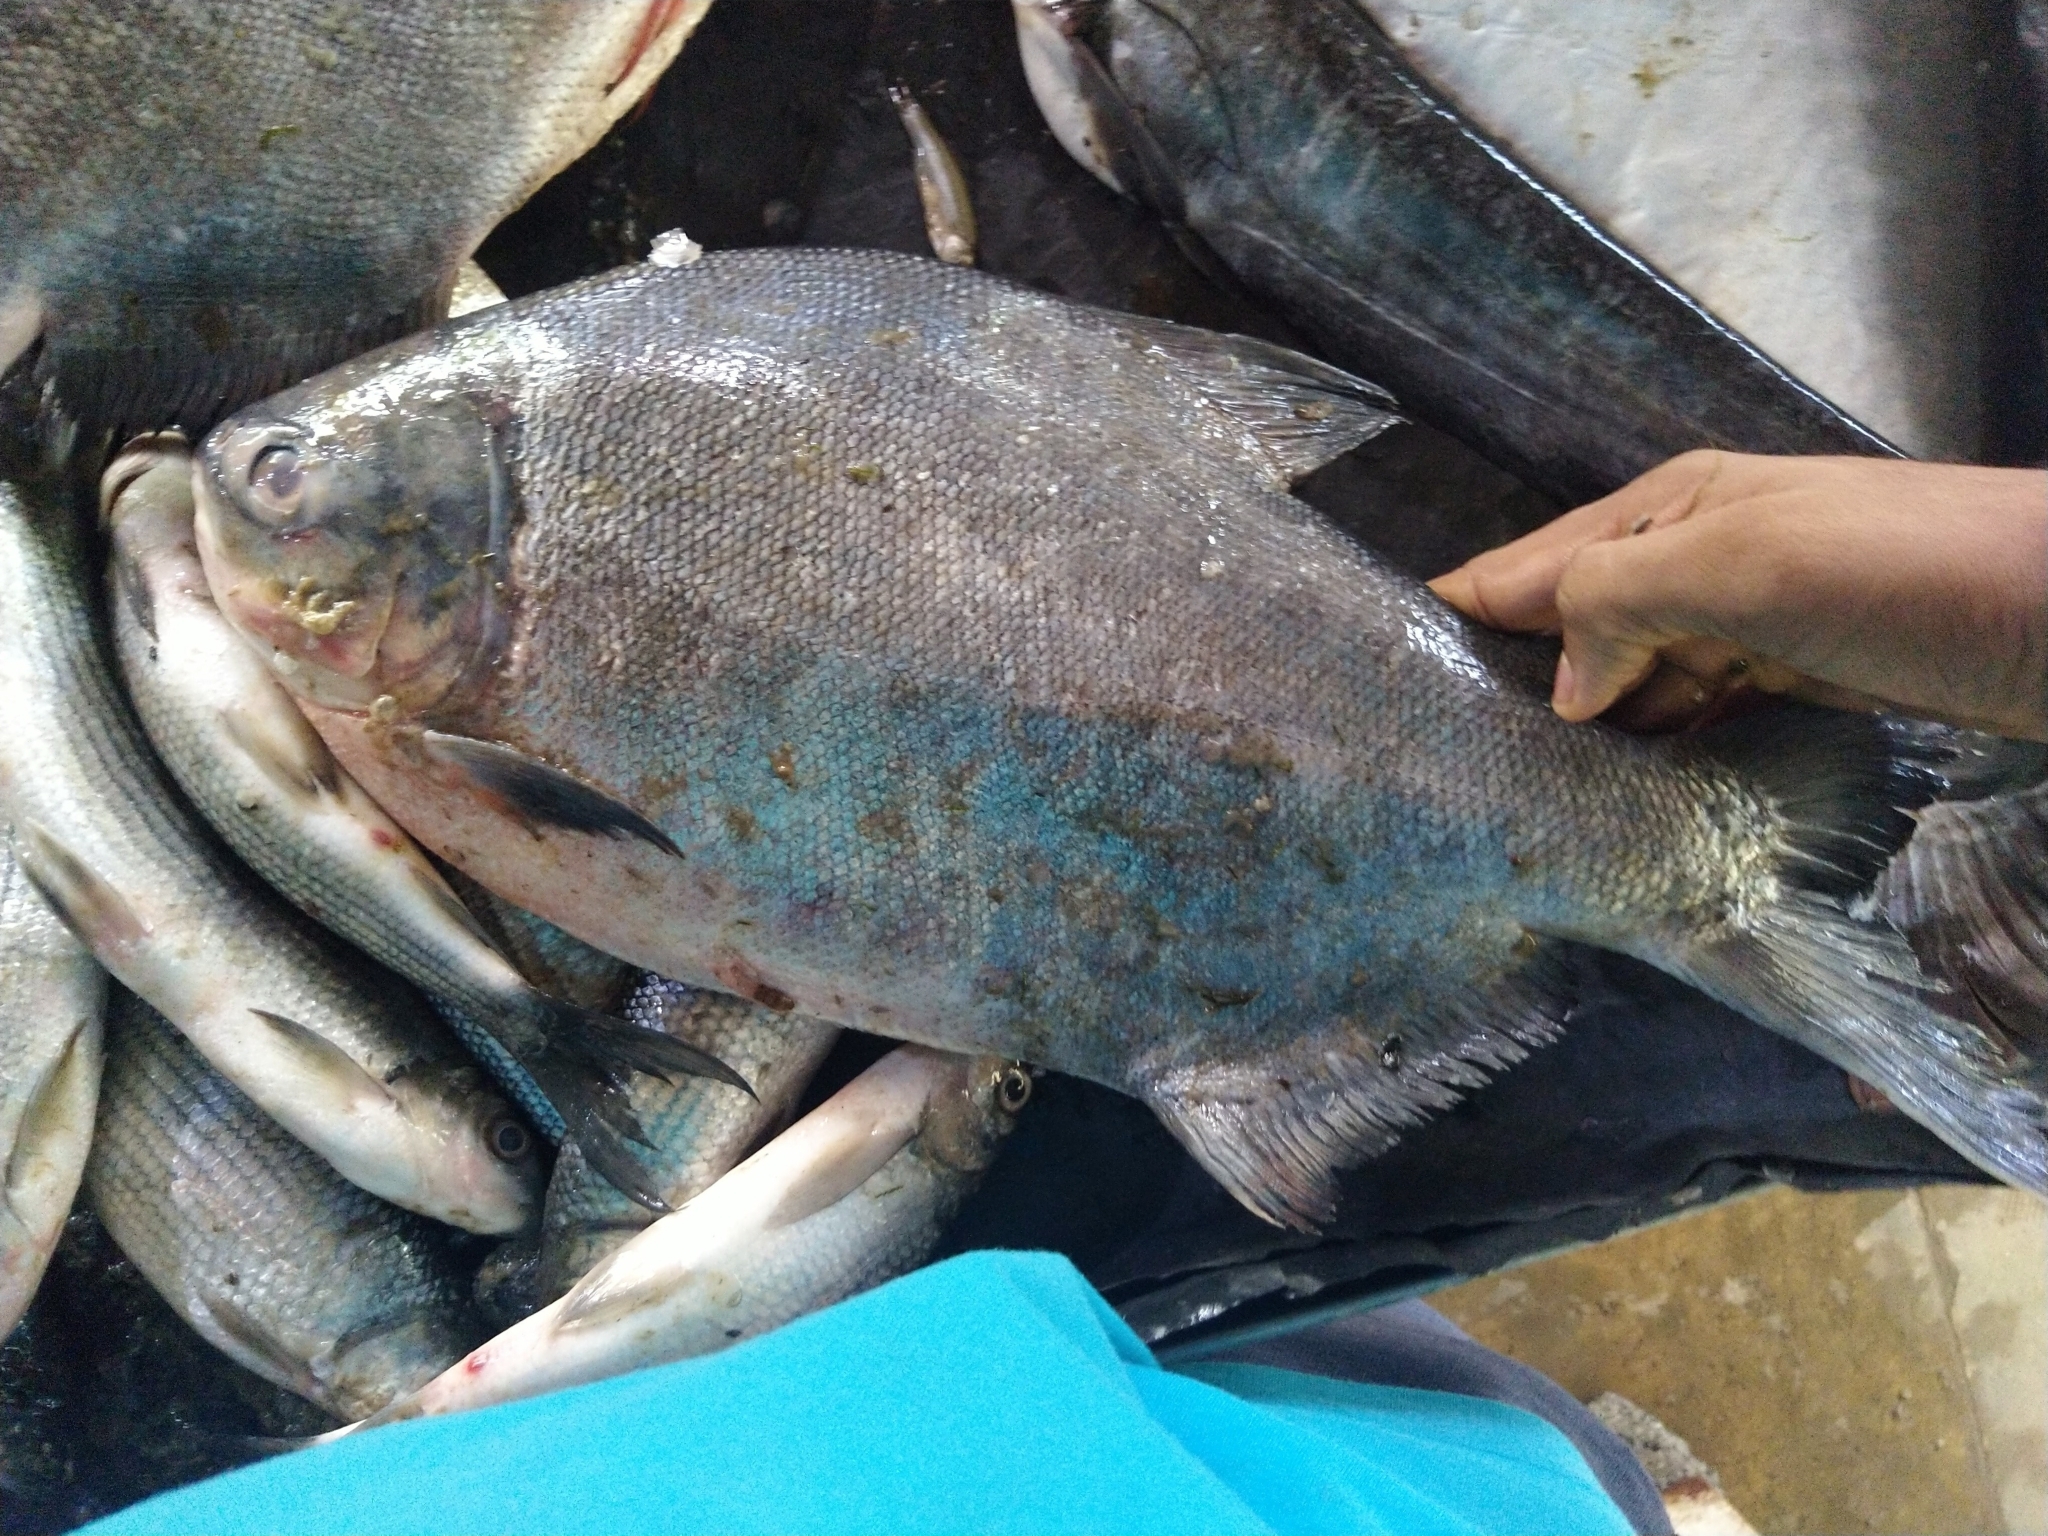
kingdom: Animalia
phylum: Chordata
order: Characiformes
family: Serrasalmidae
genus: Piaractus
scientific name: Piaractus brachypomus
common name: Cachama
